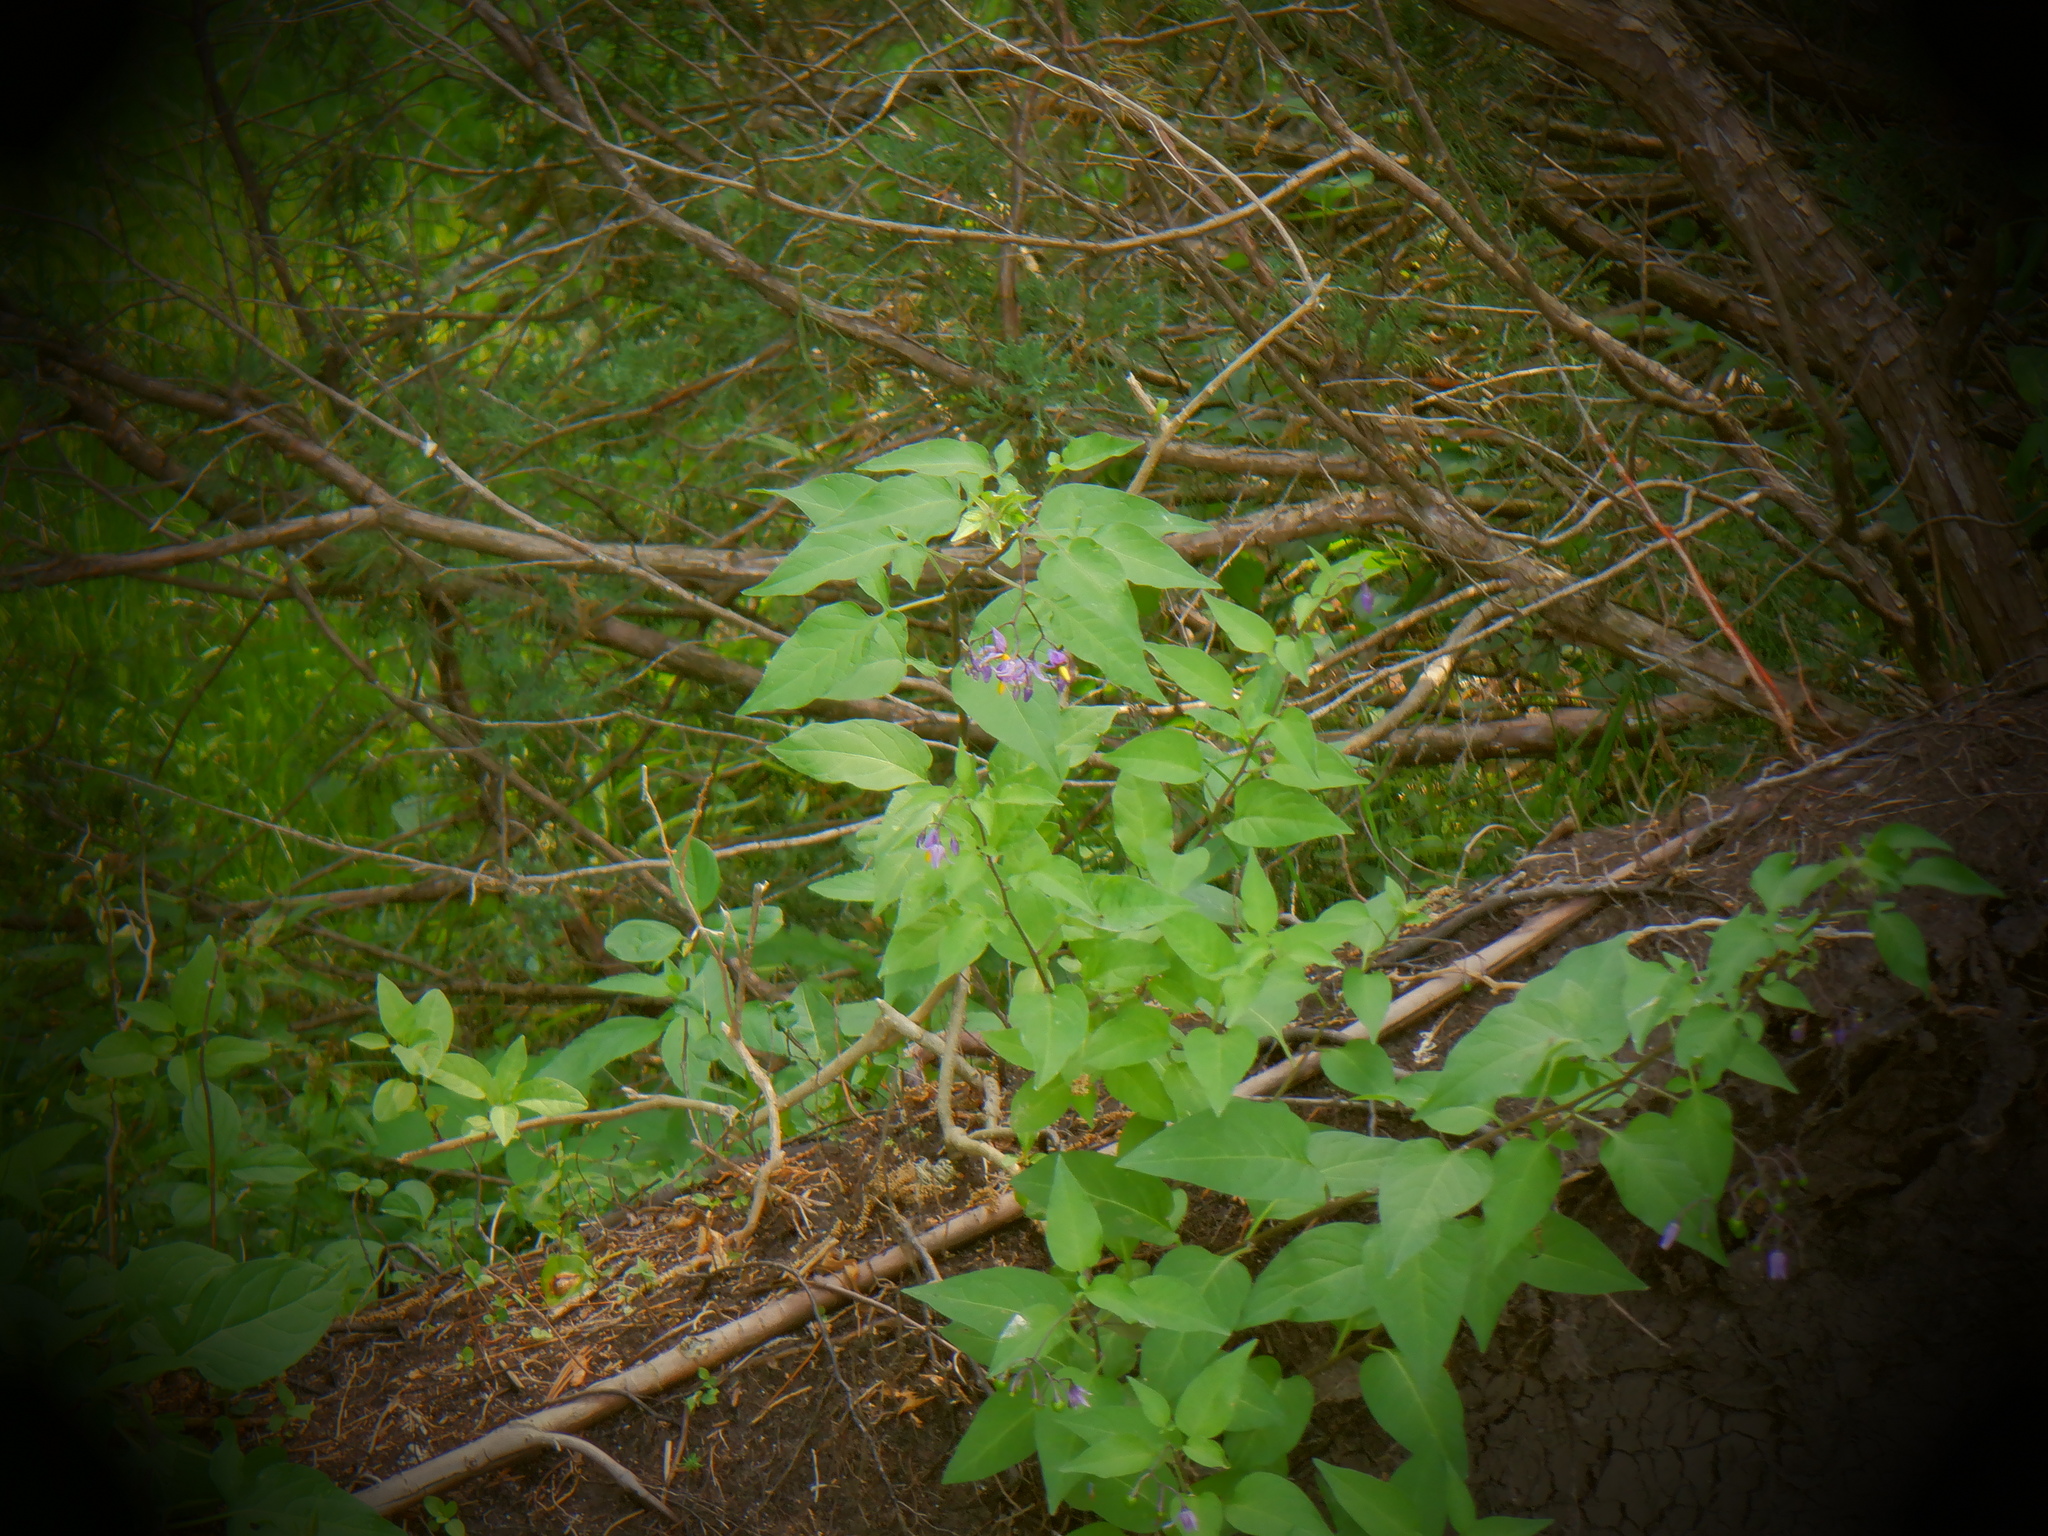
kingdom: Plantae
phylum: Tracheophyta
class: Magnoliopsida
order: Solanales
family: Solanaceae
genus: Solanum
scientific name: Solanum dulcamara
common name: Climbing nightshade
